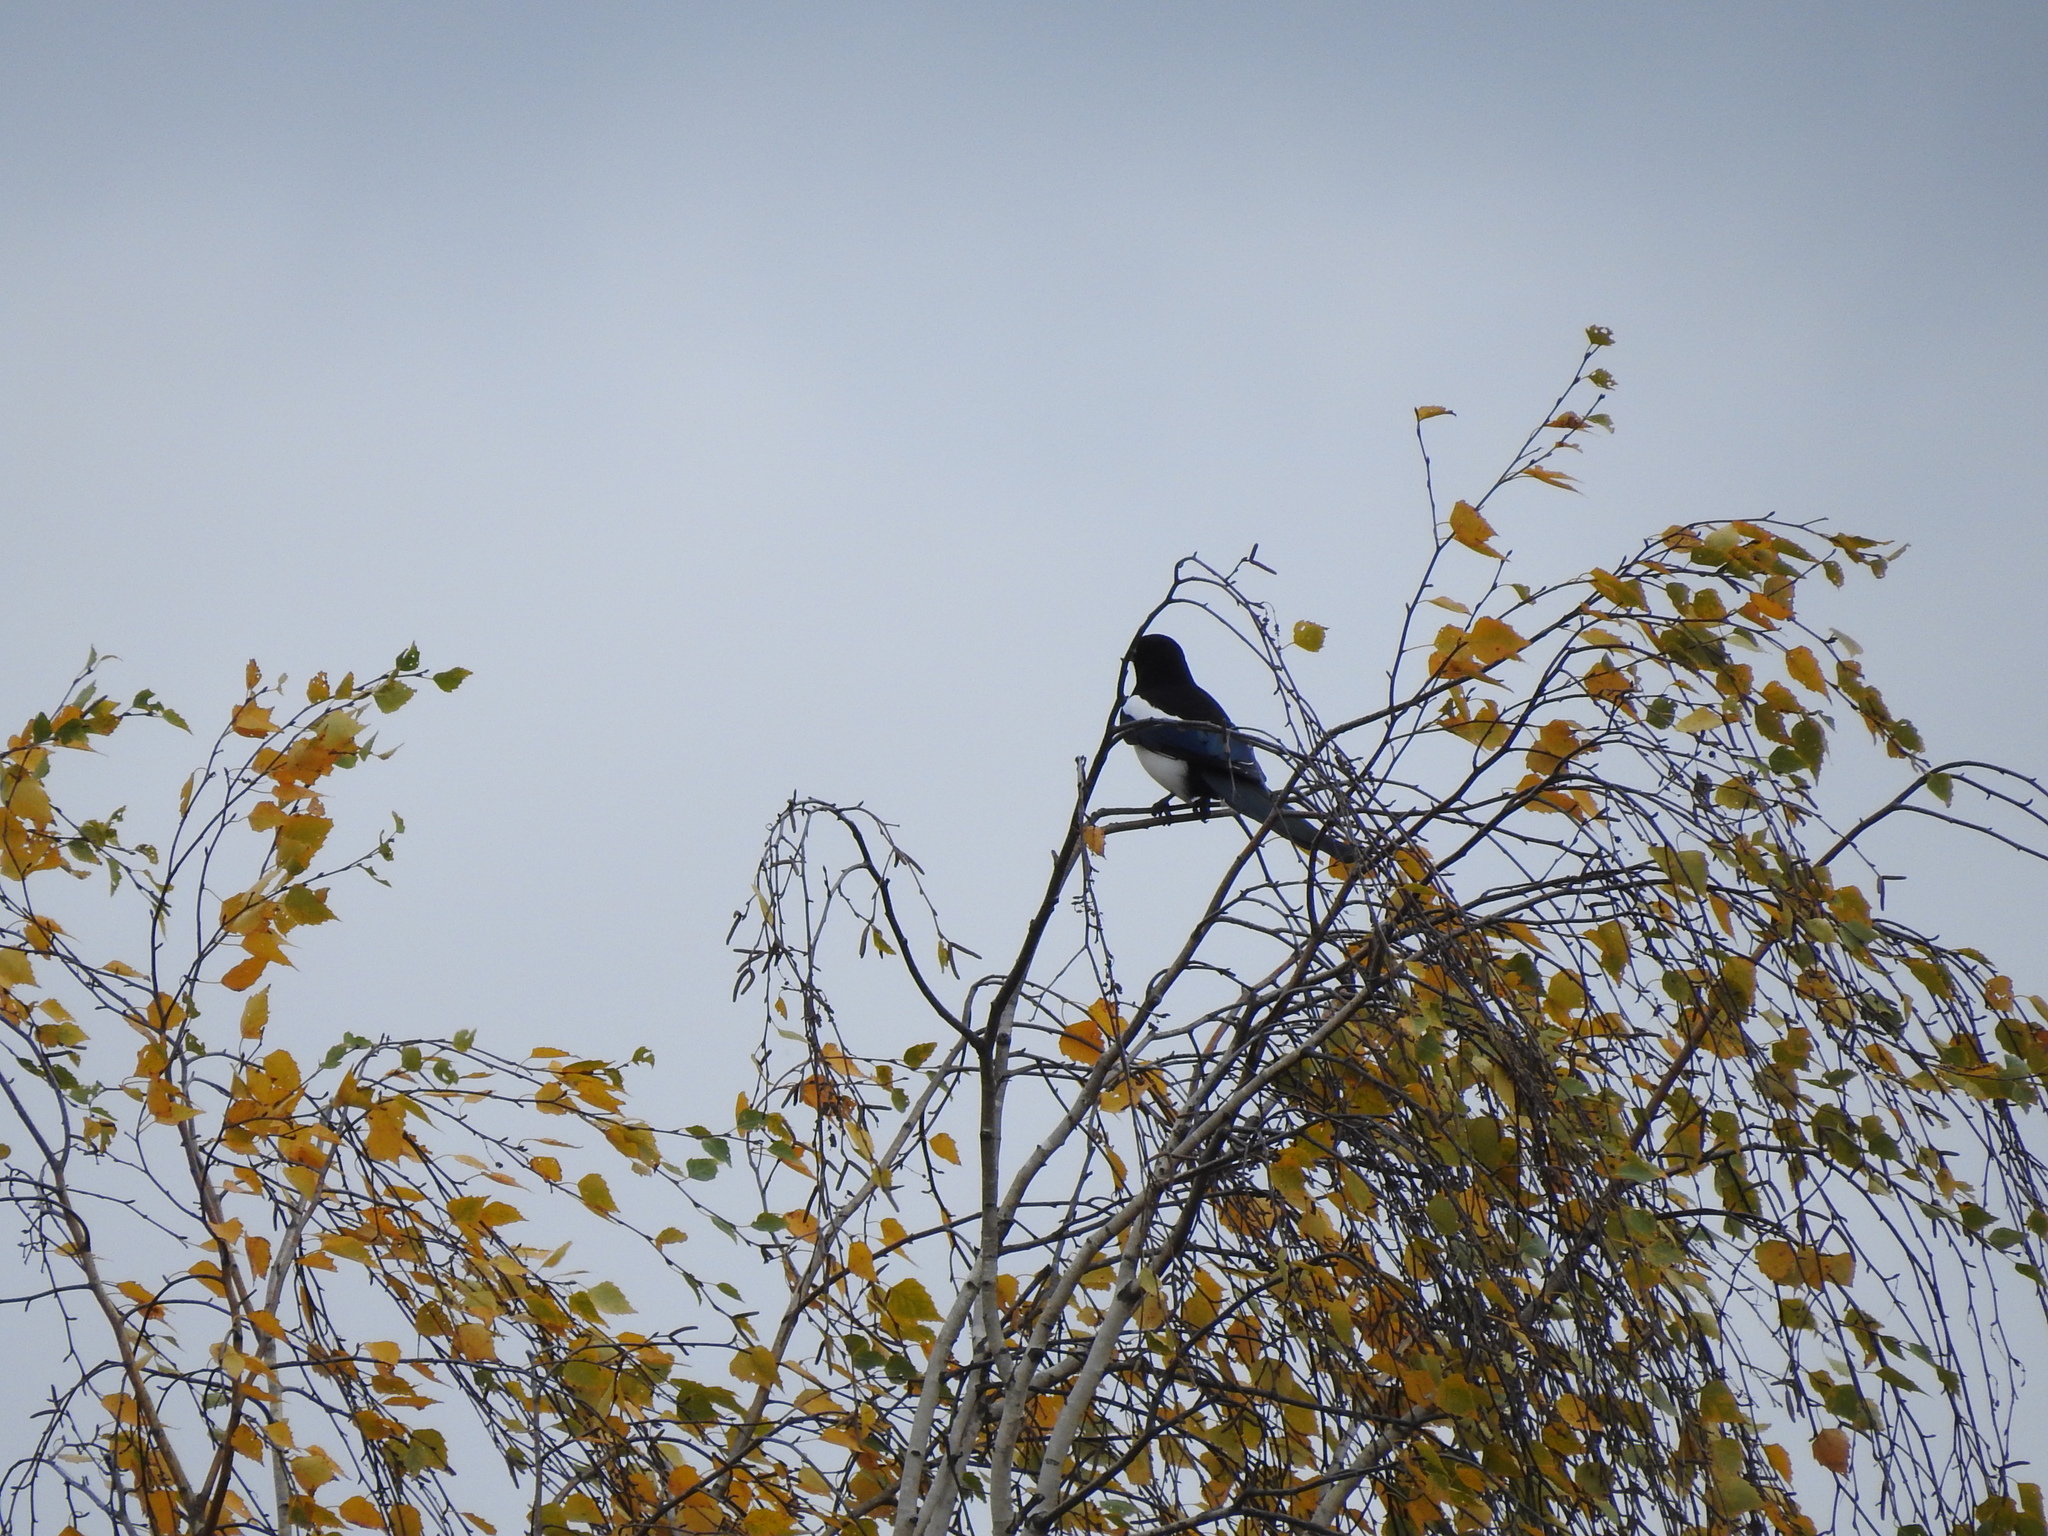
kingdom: Animalia
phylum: Chordata
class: Aves
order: Passeriformes
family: Corvidae
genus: Pica
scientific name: Pica pica
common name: Eurasian magpie
